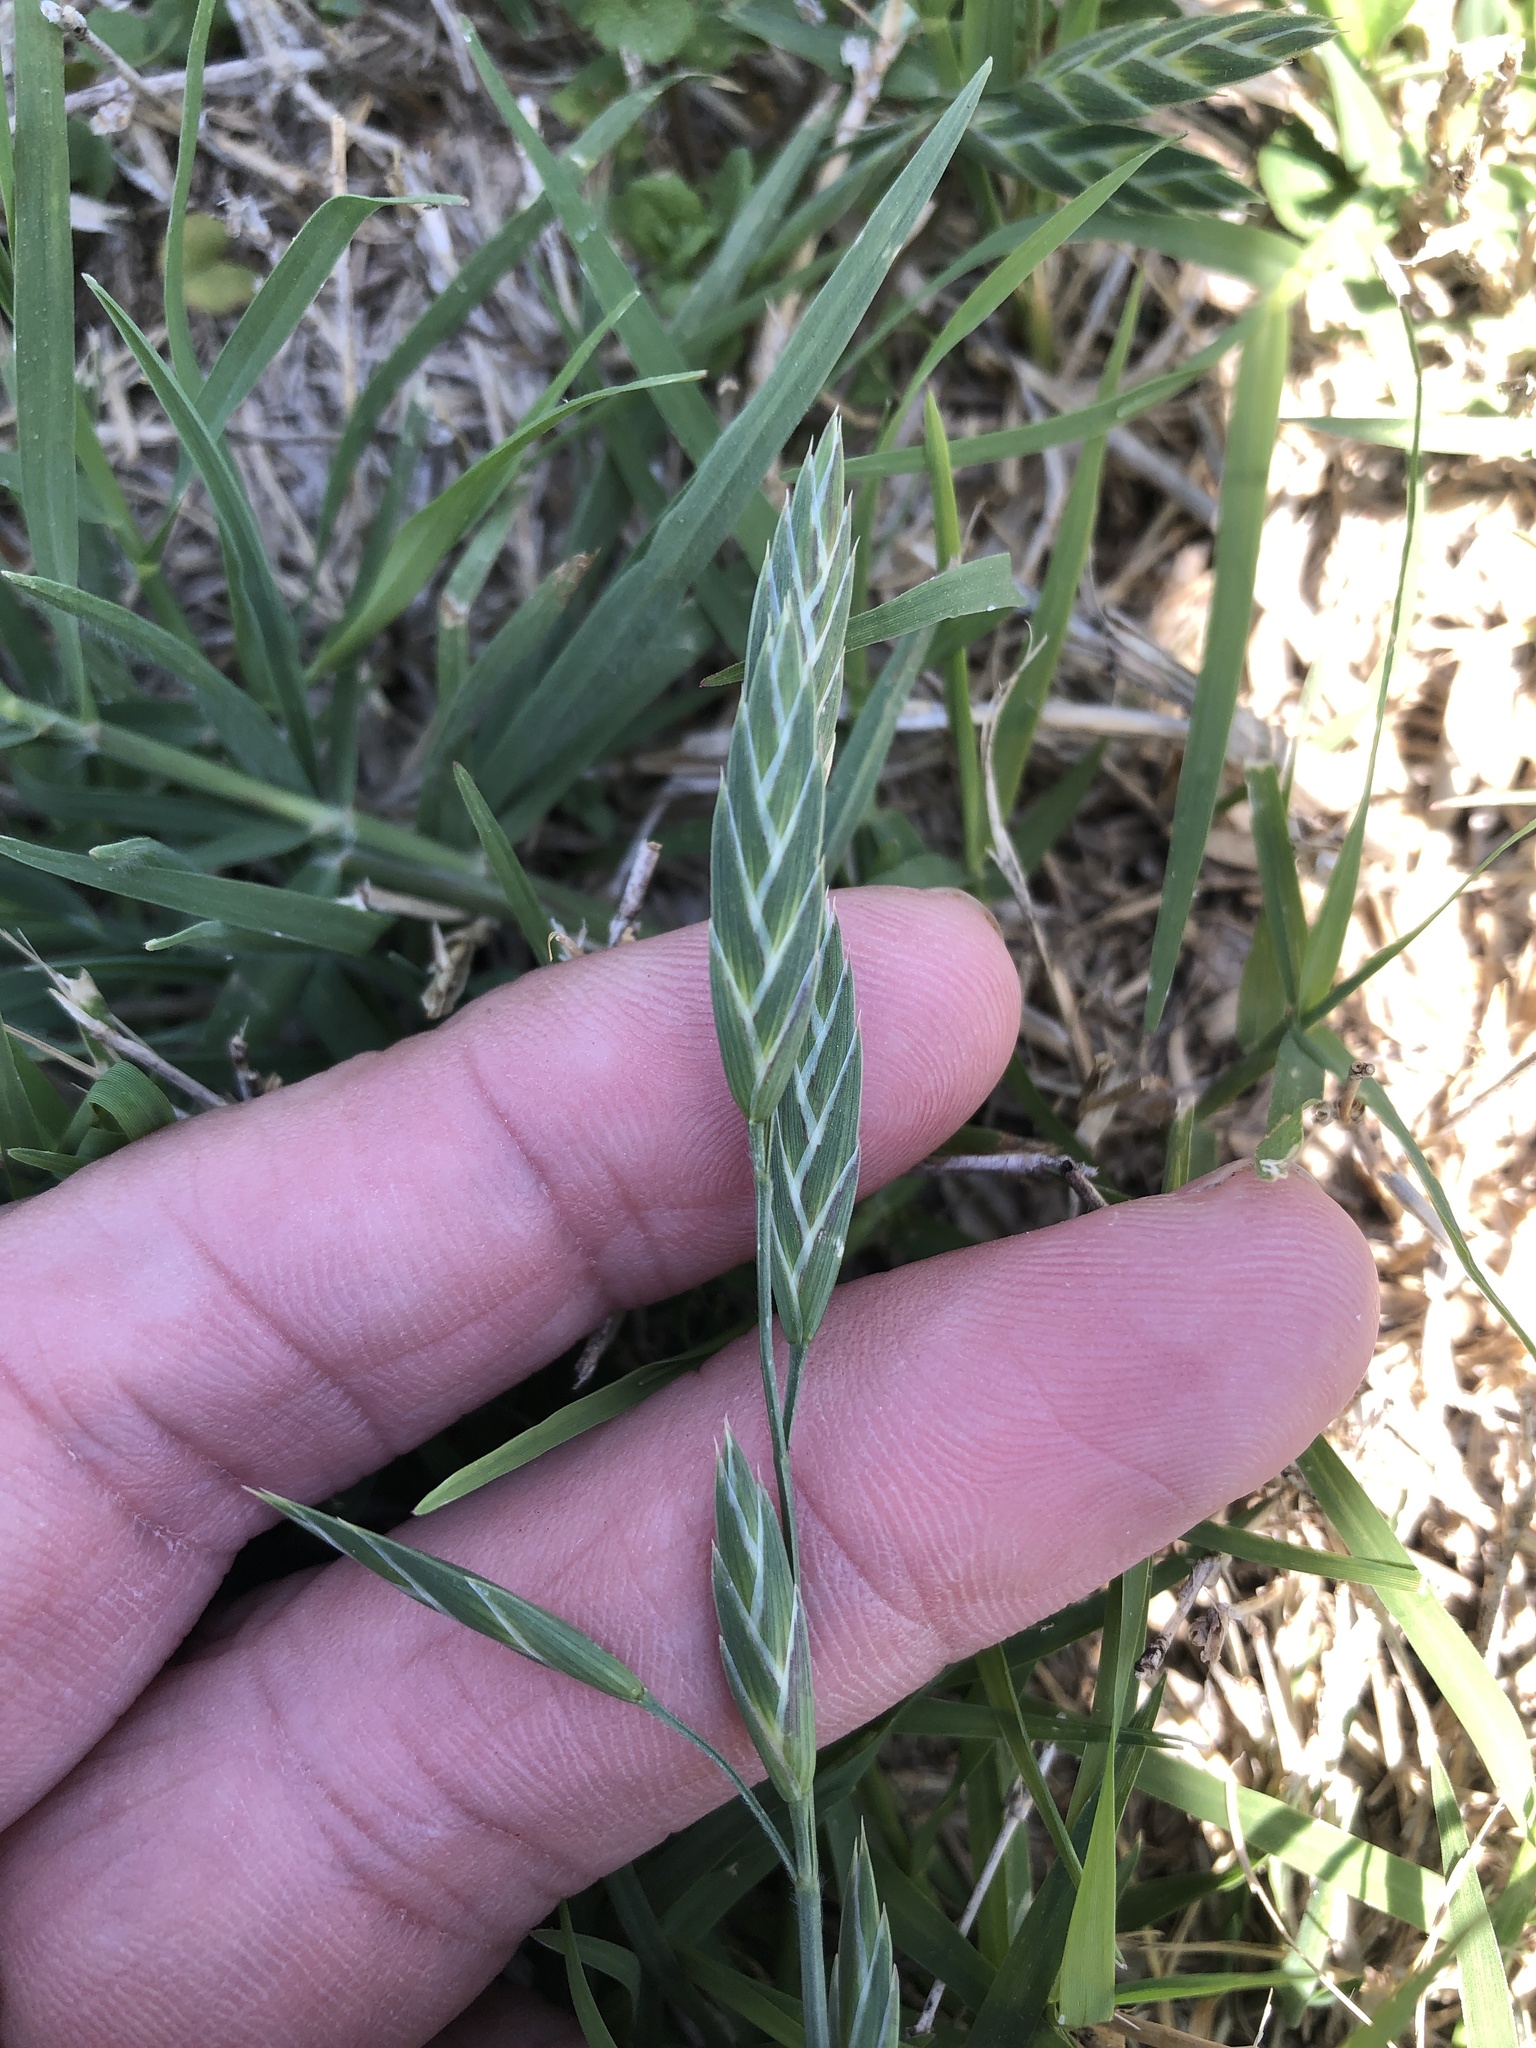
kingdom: Plantae
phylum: Tracheophyta
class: Liliopsida
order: Poales
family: Poaceae
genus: Bromus
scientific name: Bromus catharticus
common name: Rescuegrass
